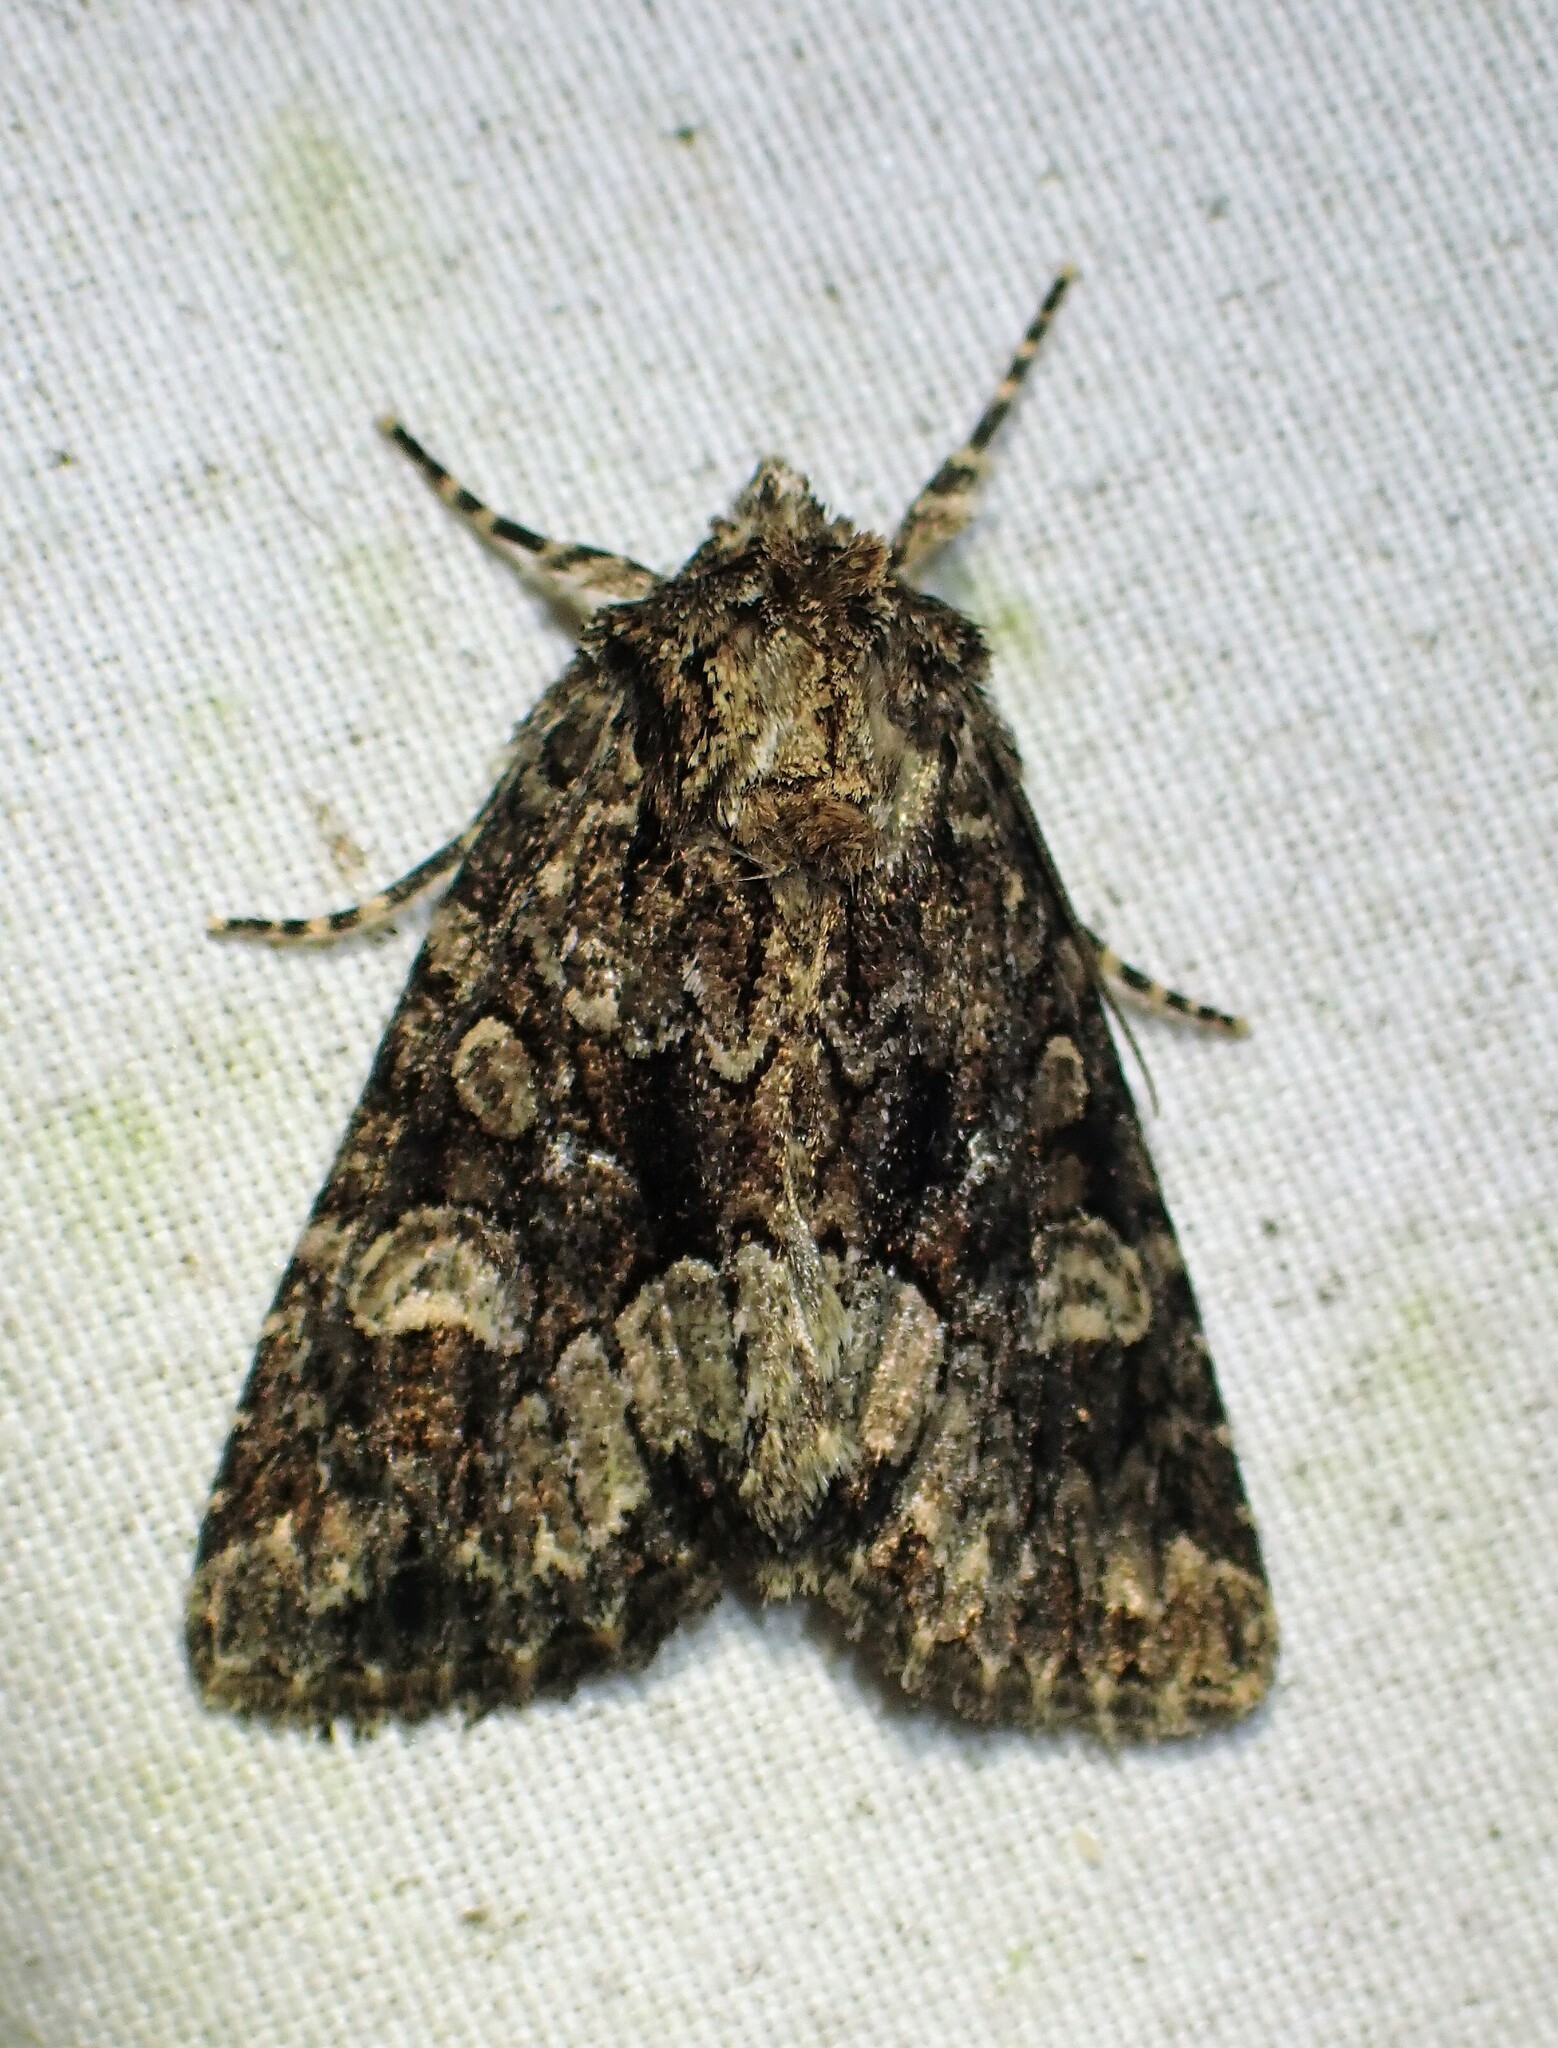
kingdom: Animalia
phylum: Arthropoda
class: Insecta
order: Lepidoptera
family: Noctuidae
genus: Platypolia
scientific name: Platypolia mactata
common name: Adorable brocade moth
